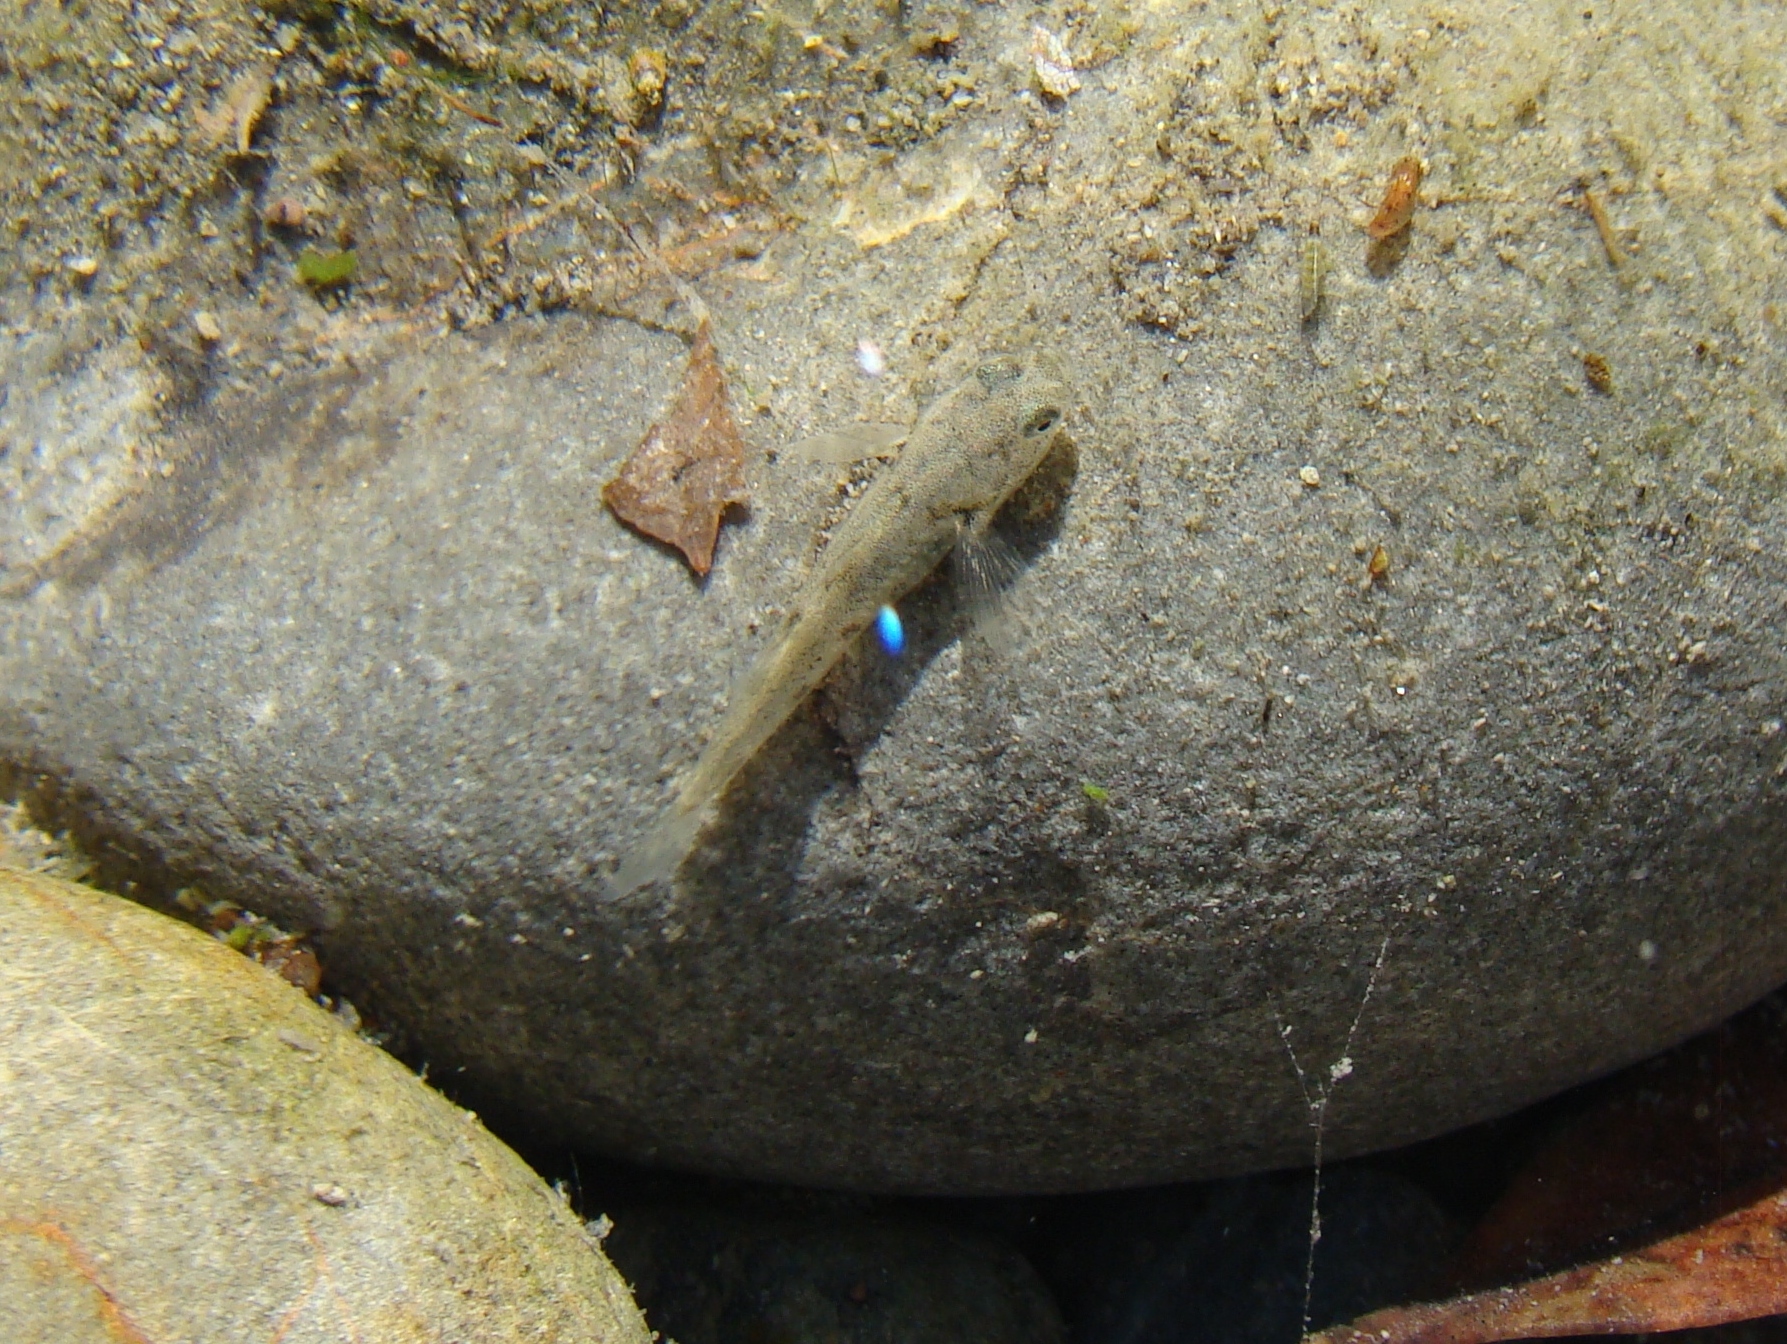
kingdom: Animalia
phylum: Chordata
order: Perciformes
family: Eleotridae
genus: Gobiomorphus
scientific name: Gobiomorphus
